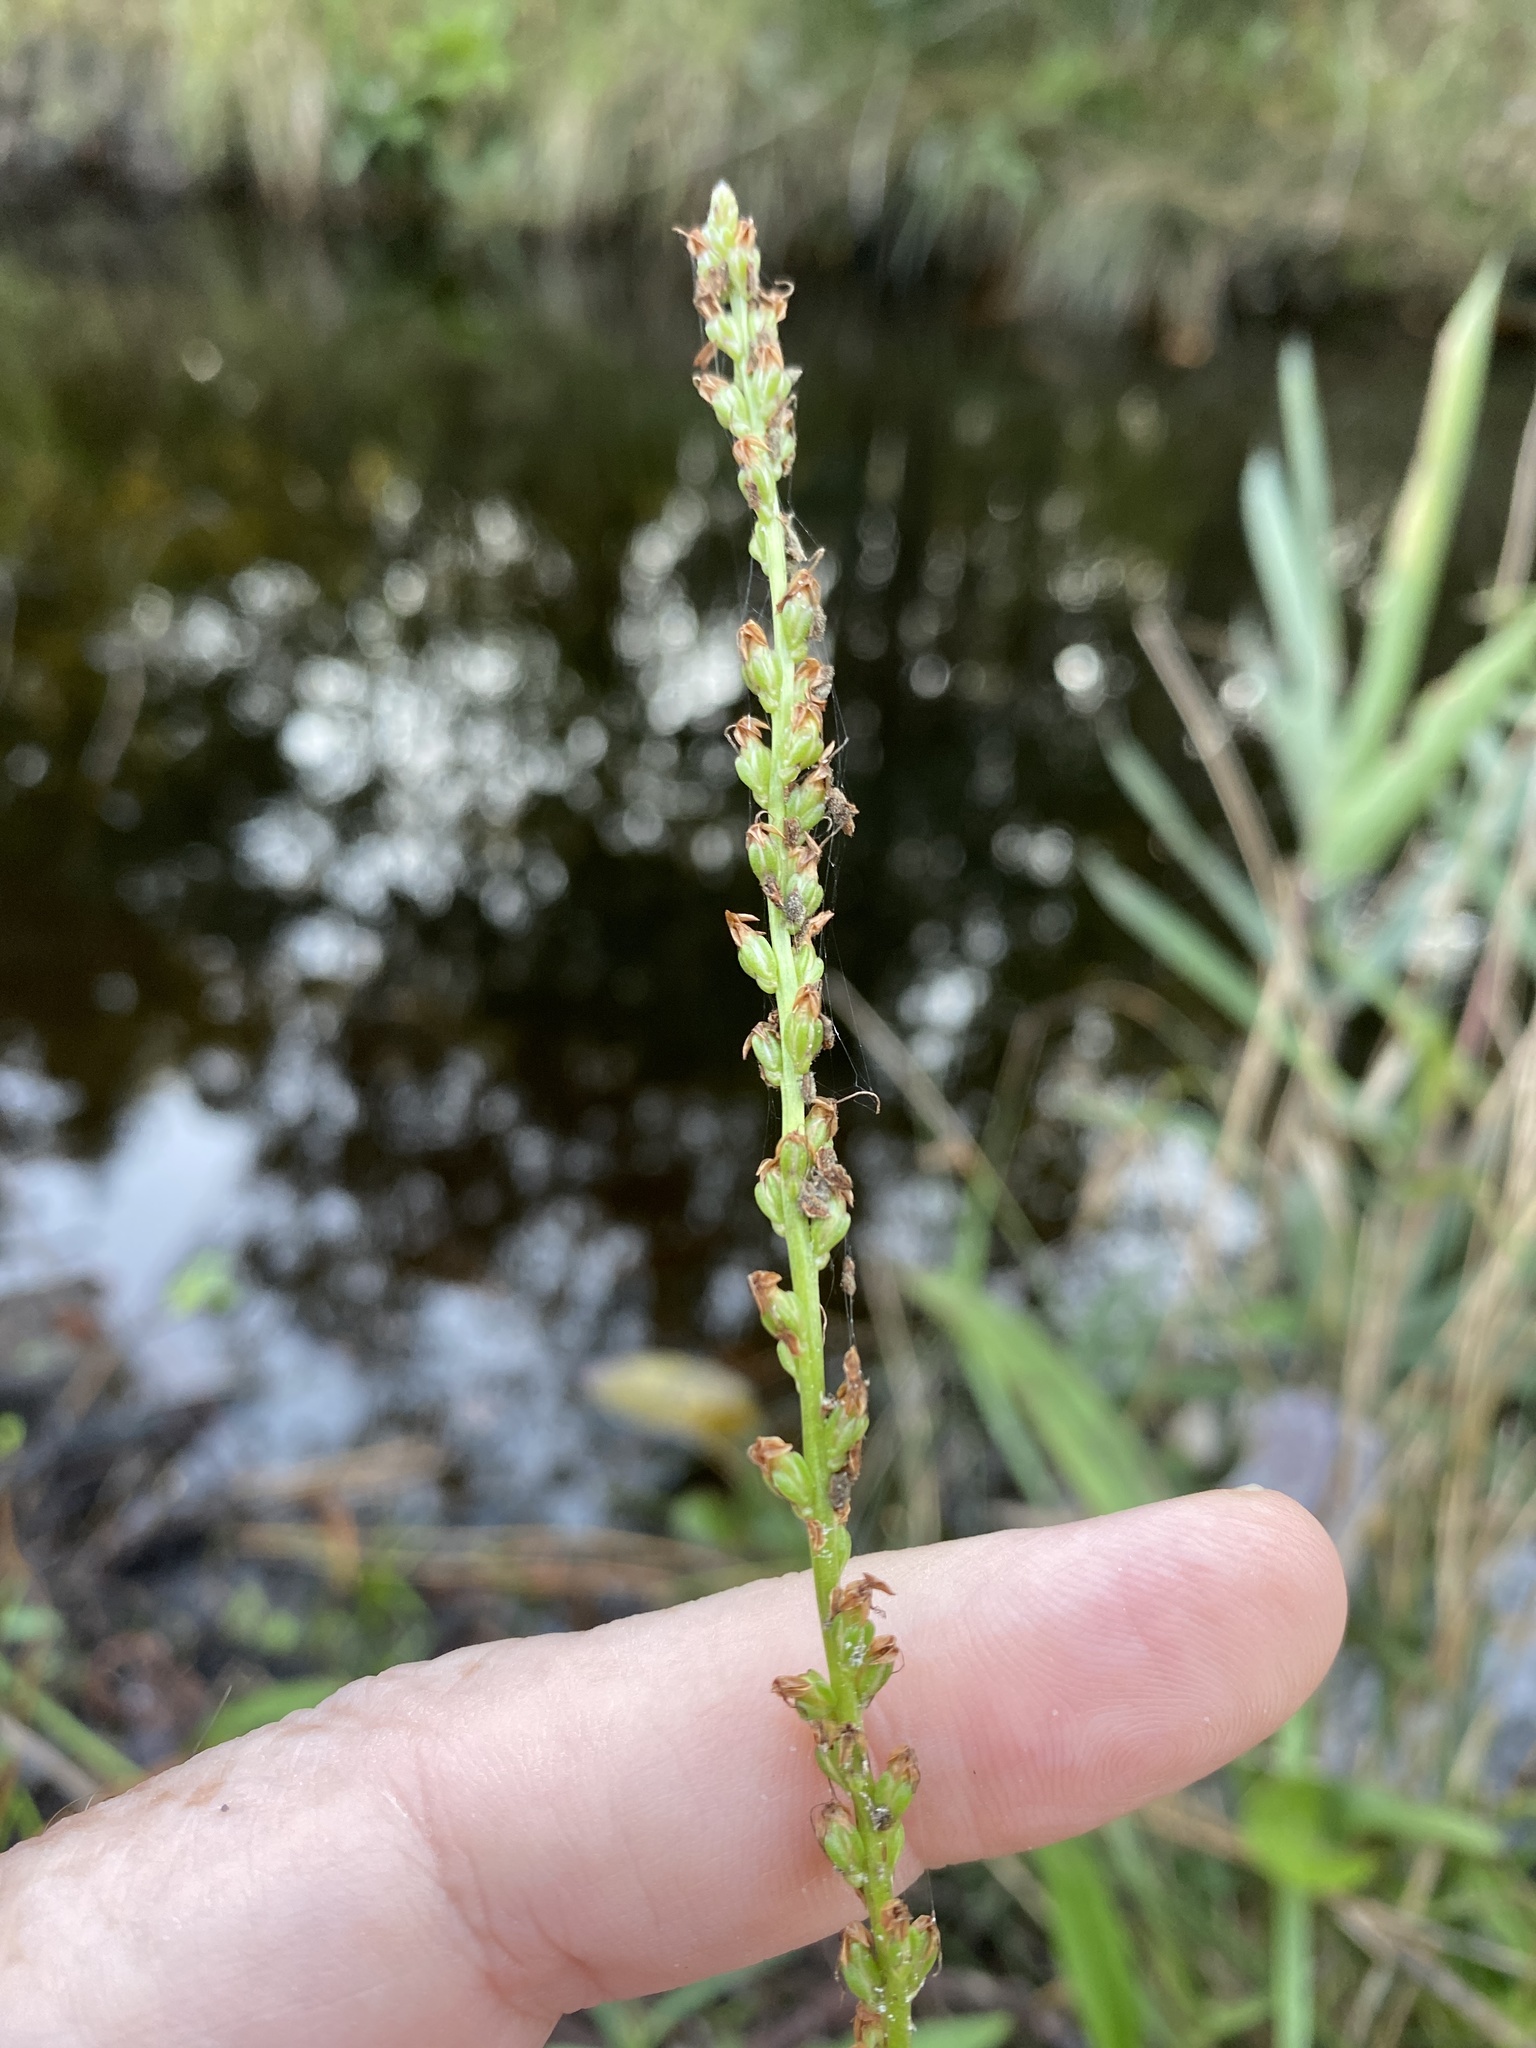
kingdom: Plantae
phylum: Tracheophyta
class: Magnoliopsida
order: Lamiales
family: Plantaginaceae
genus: Plantago
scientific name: Plantago sparsiflora
